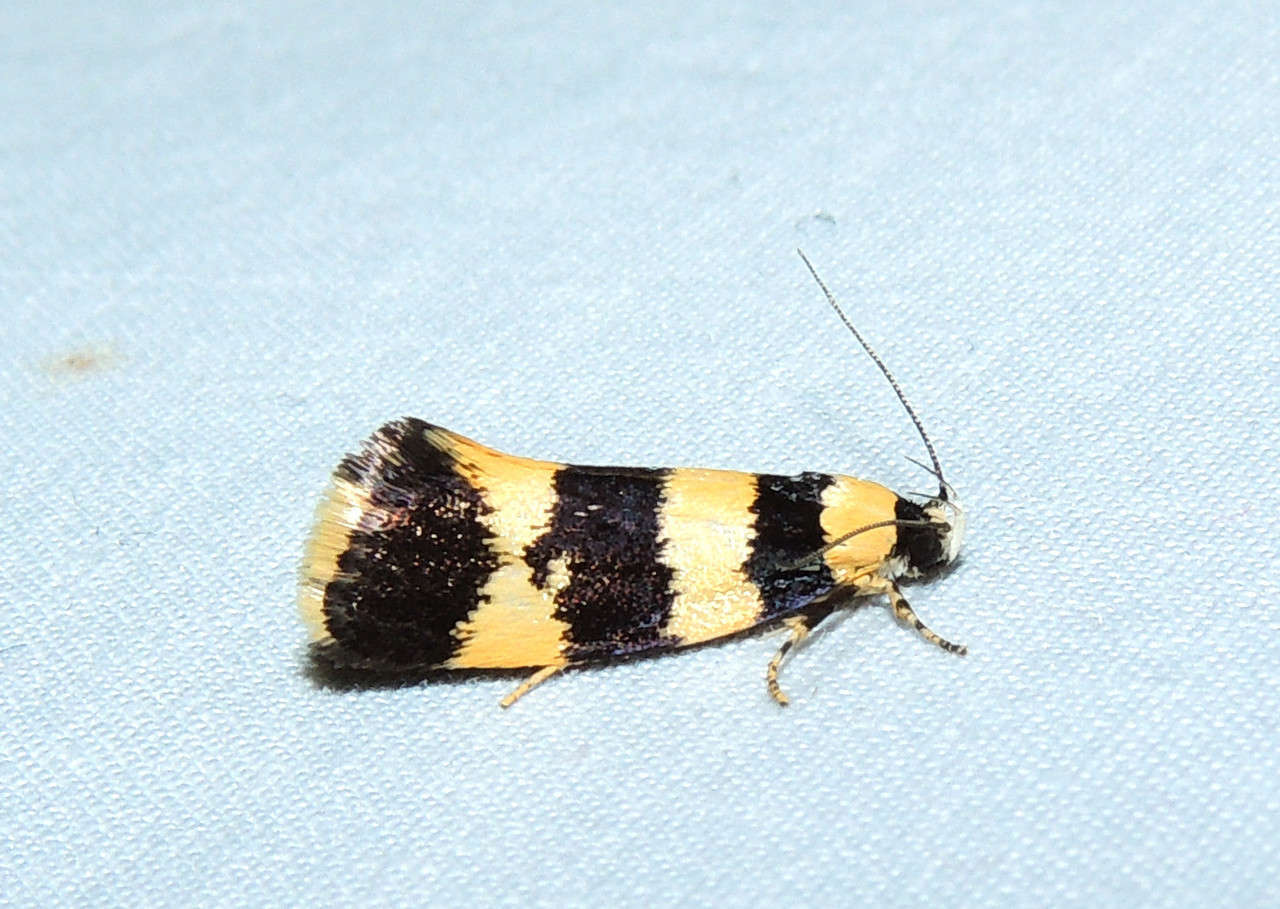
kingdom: Animalia
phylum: Arthropoda
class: Insecta
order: Lepidoptera
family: Xyloryctidae
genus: Telecrates
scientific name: Telecrates melanochrysa
